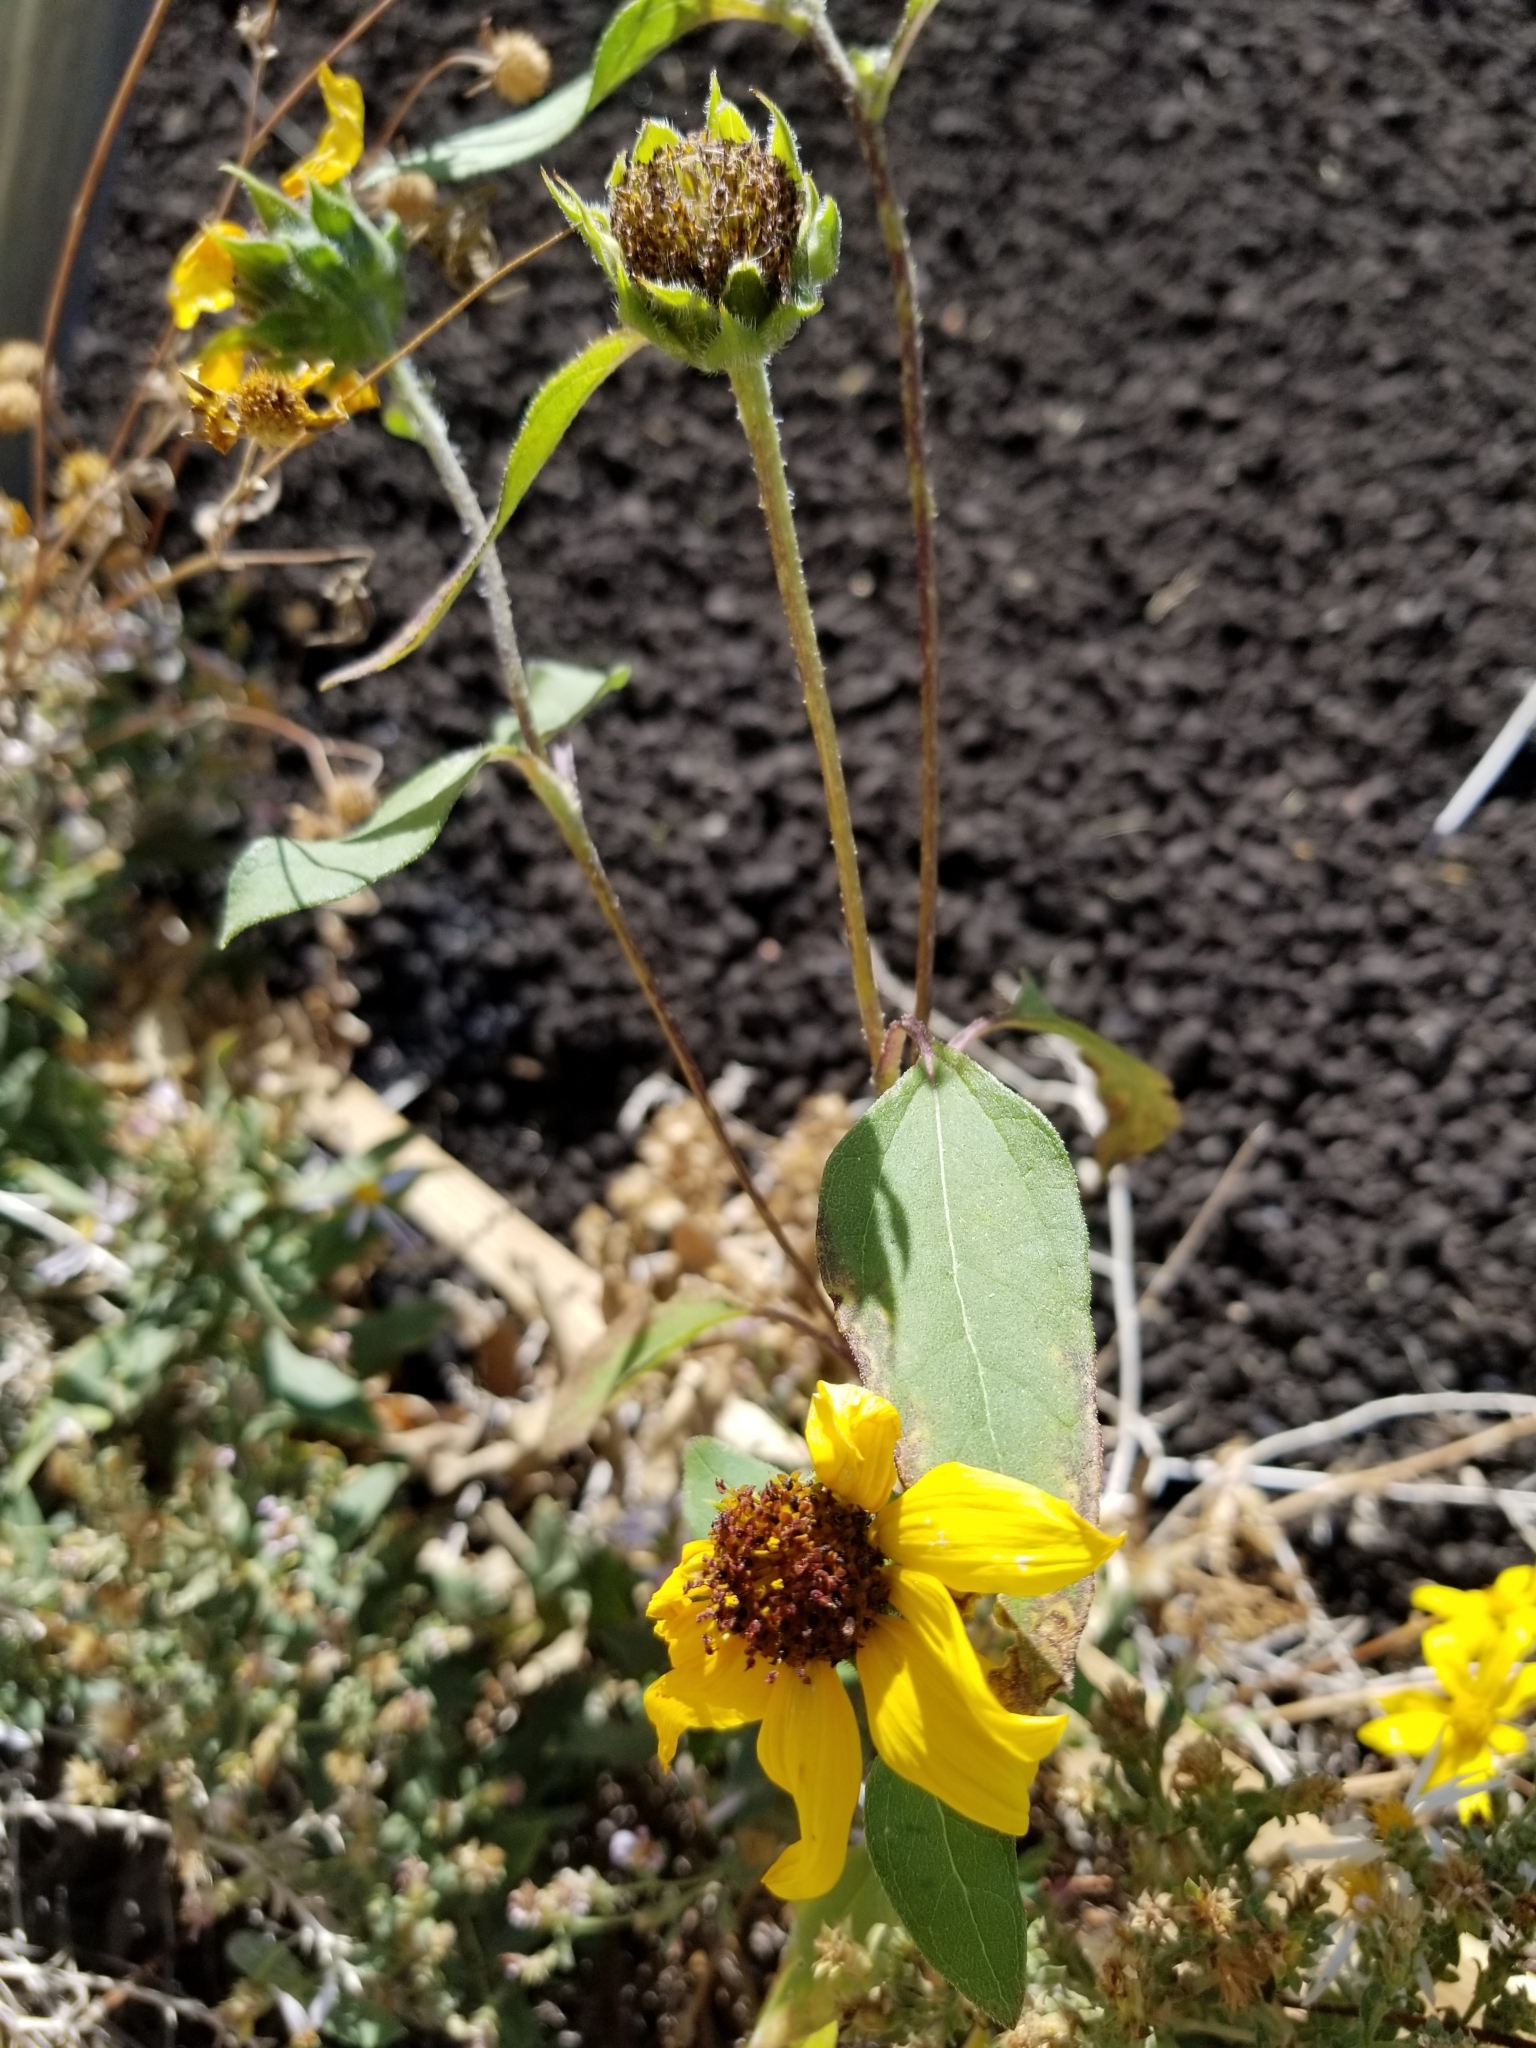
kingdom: Plantae
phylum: Tracheophyta
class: Magnoliopsida
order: Asterales
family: Asteraceae
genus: Helianthus
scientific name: Helianthus annuus
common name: Sunflower
